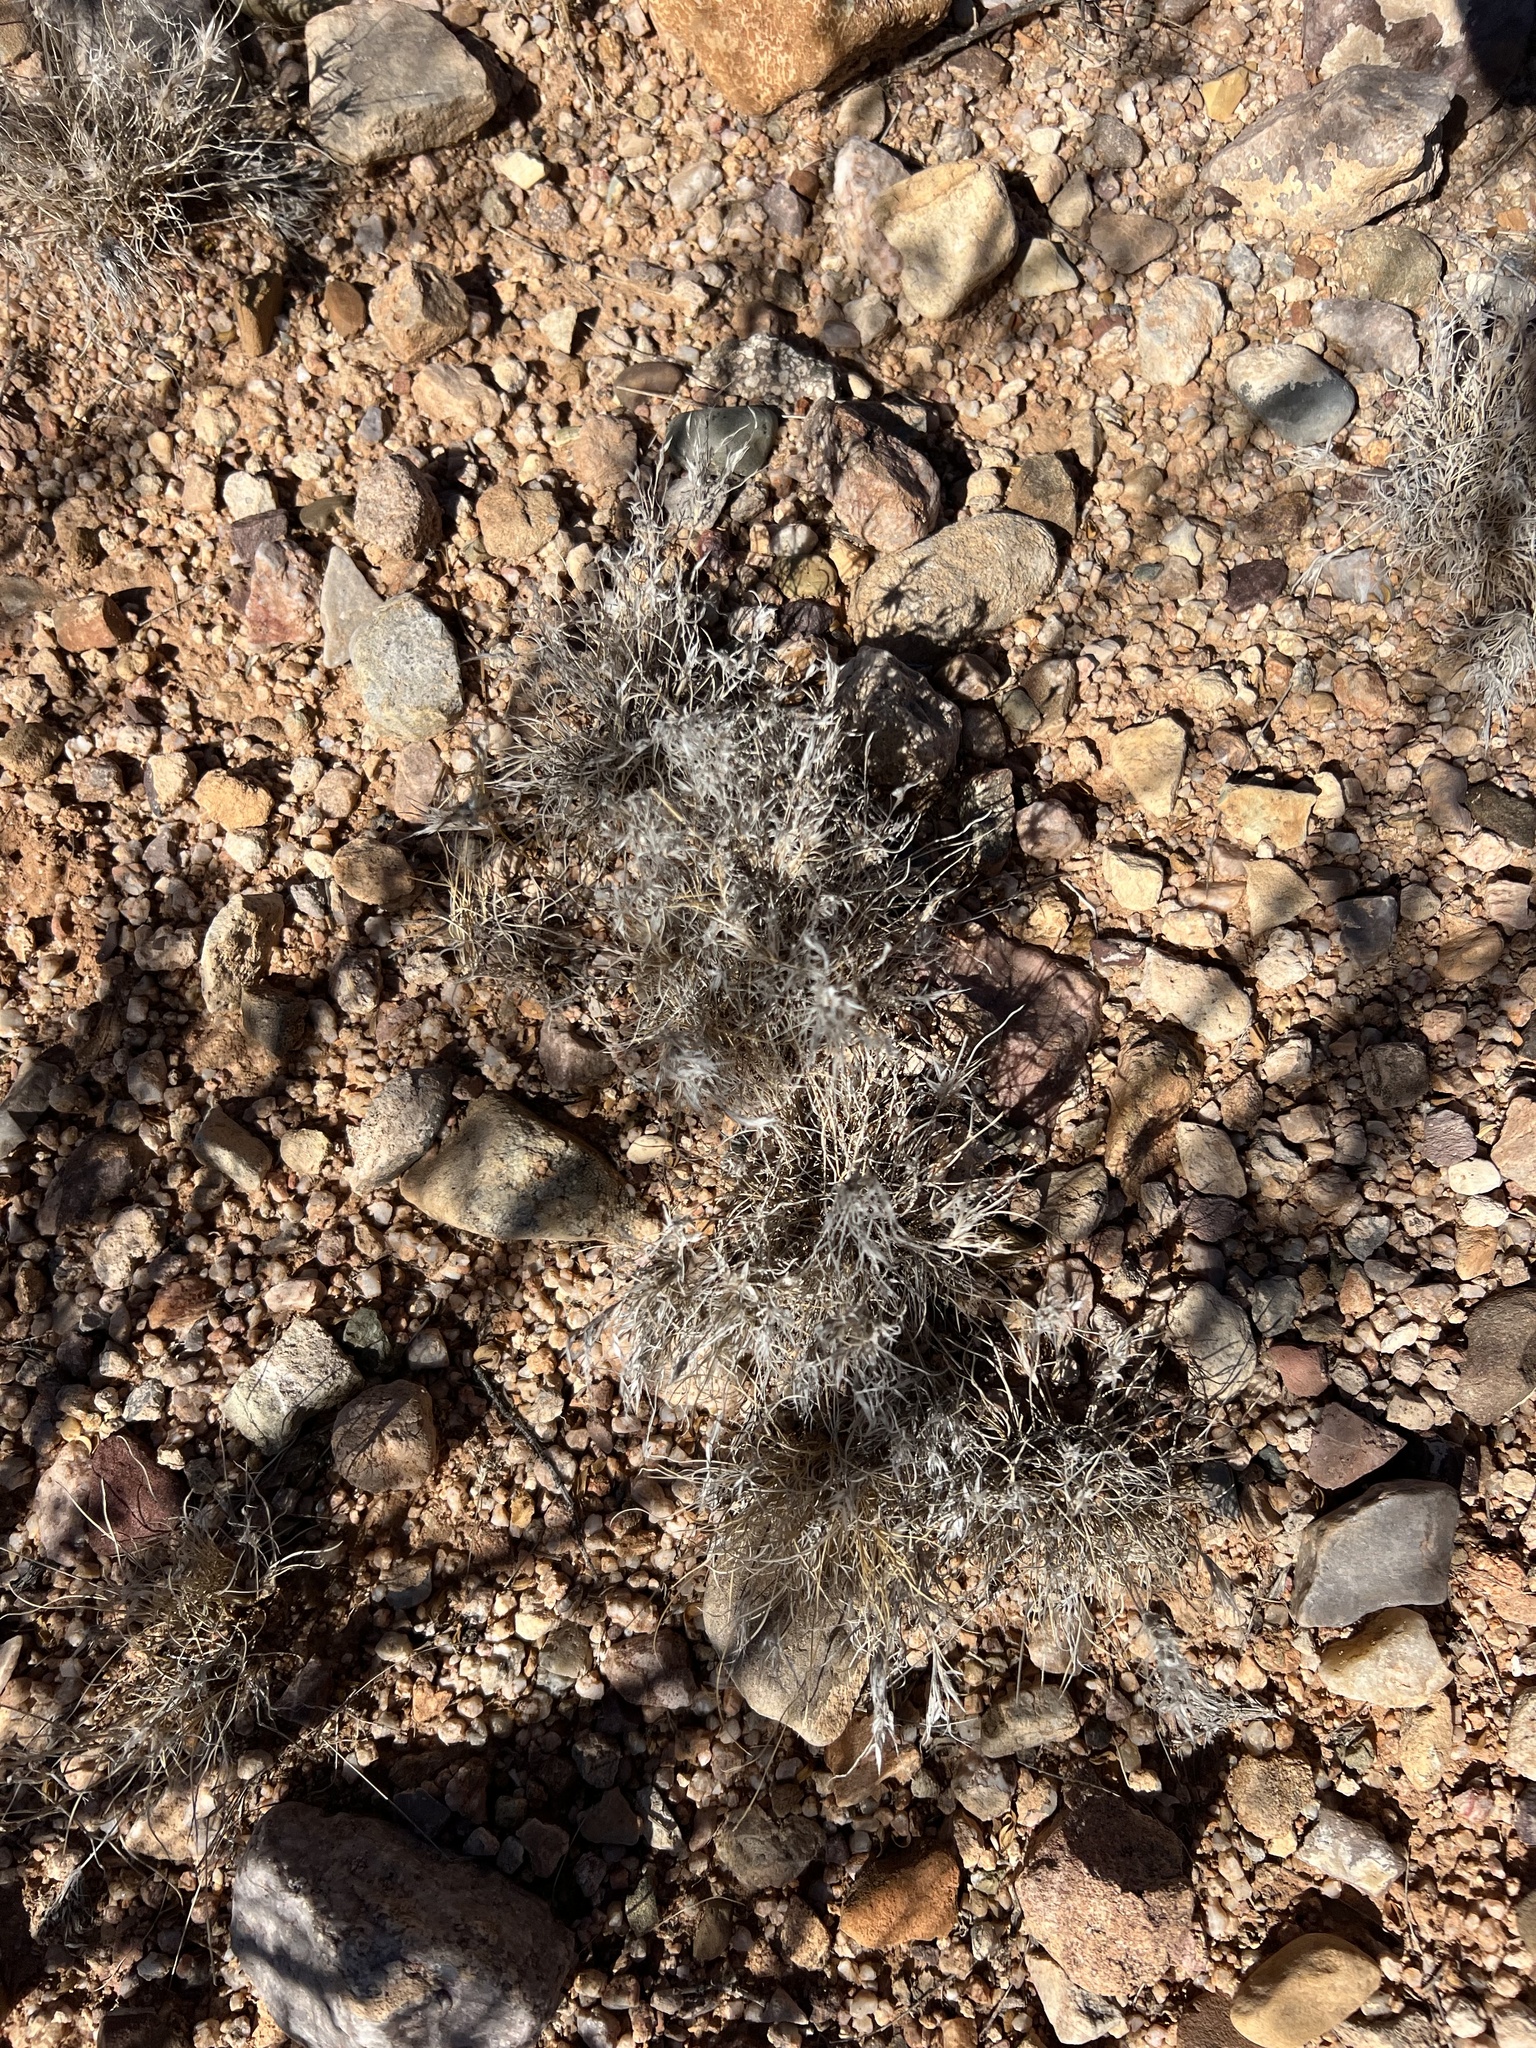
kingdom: Plantae
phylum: Tracheophyta
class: Liliopsida
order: Poales
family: Poaceae
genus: Dasyochloa
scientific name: Dasyochloa pulchella
